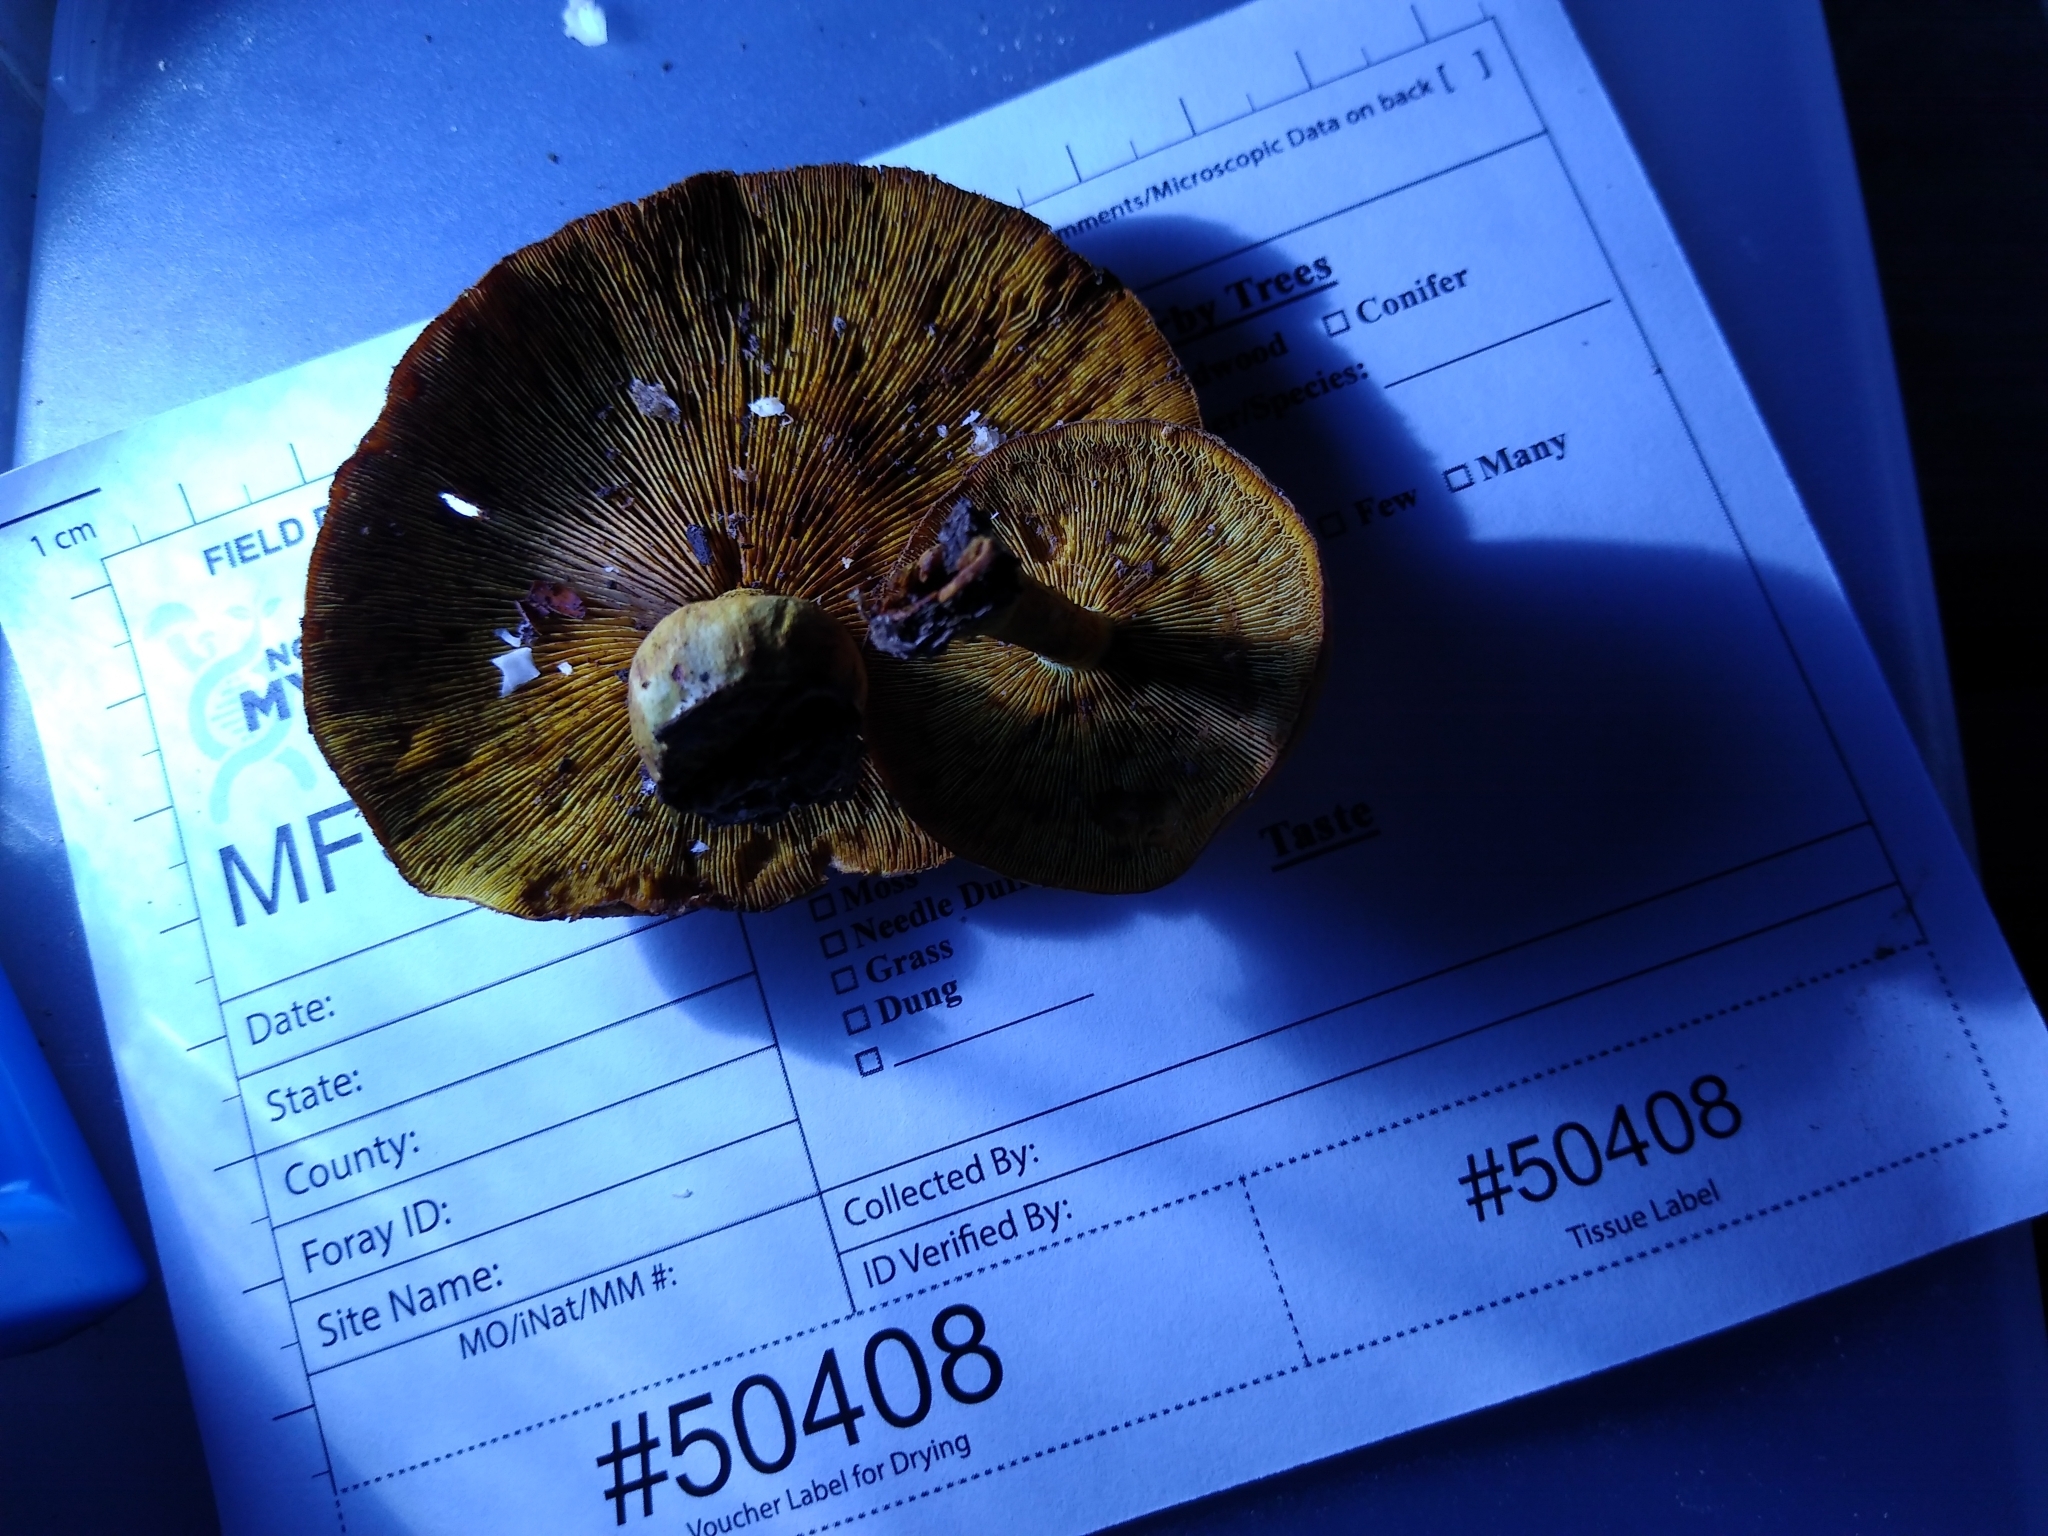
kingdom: Fungi
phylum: Basidiomycota
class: Agaricomycetes
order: Agaricales
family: Crepidotaceae
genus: Pleuroflammula
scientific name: Pleuroflammula multifolia
